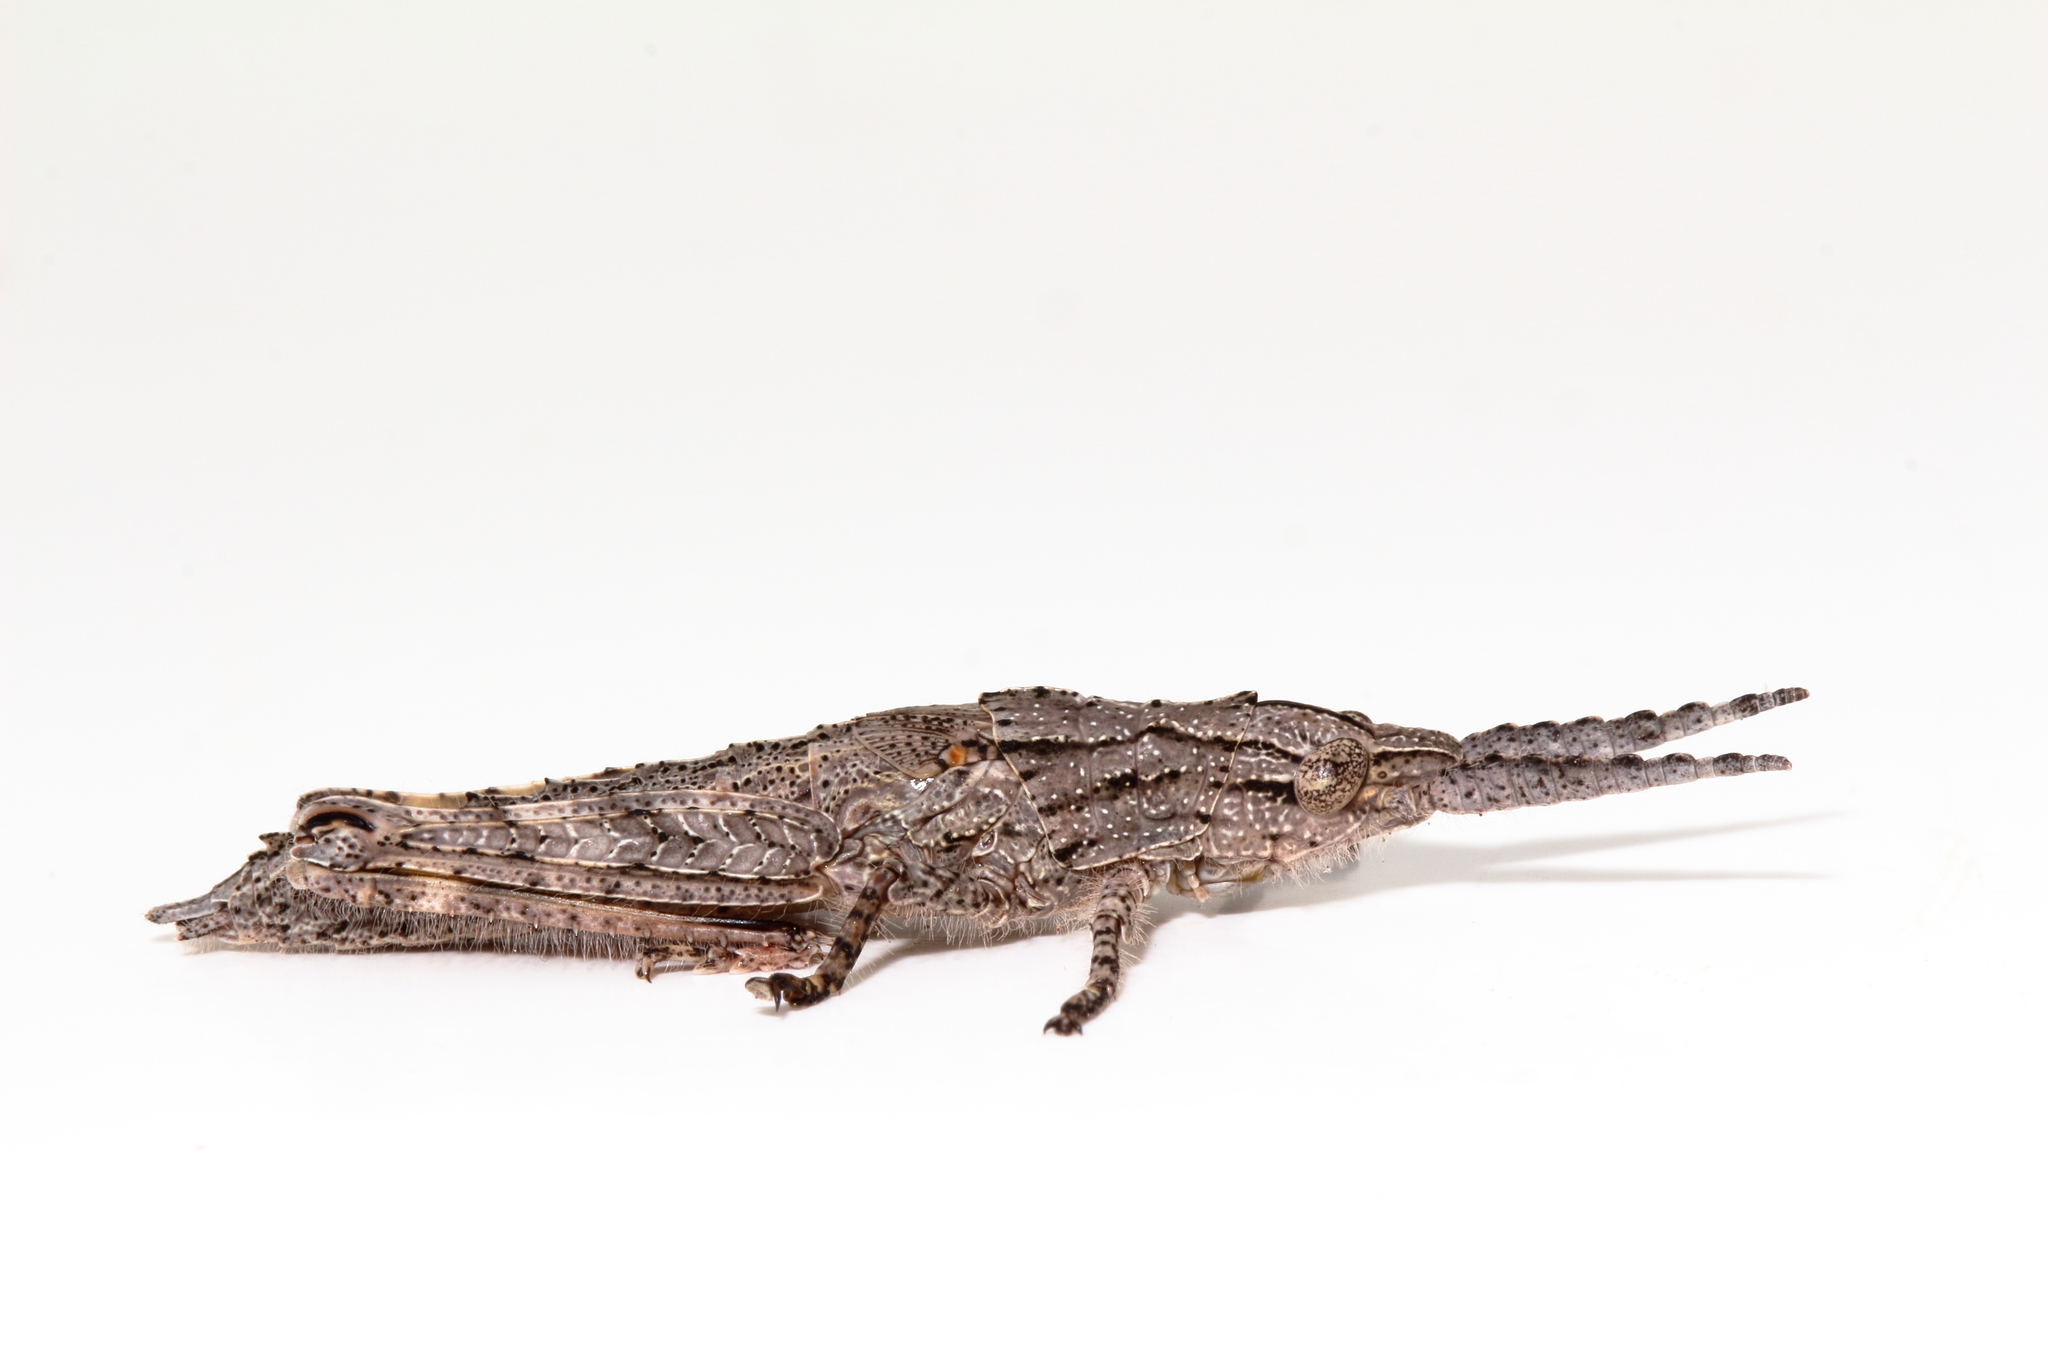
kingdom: Animalia
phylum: Arthropoda
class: Insecta
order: Orthoptera
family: Acrididae
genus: Macrolobalia
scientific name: Macrolobalia ocellata
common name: Gaudy acacia grasshopper
